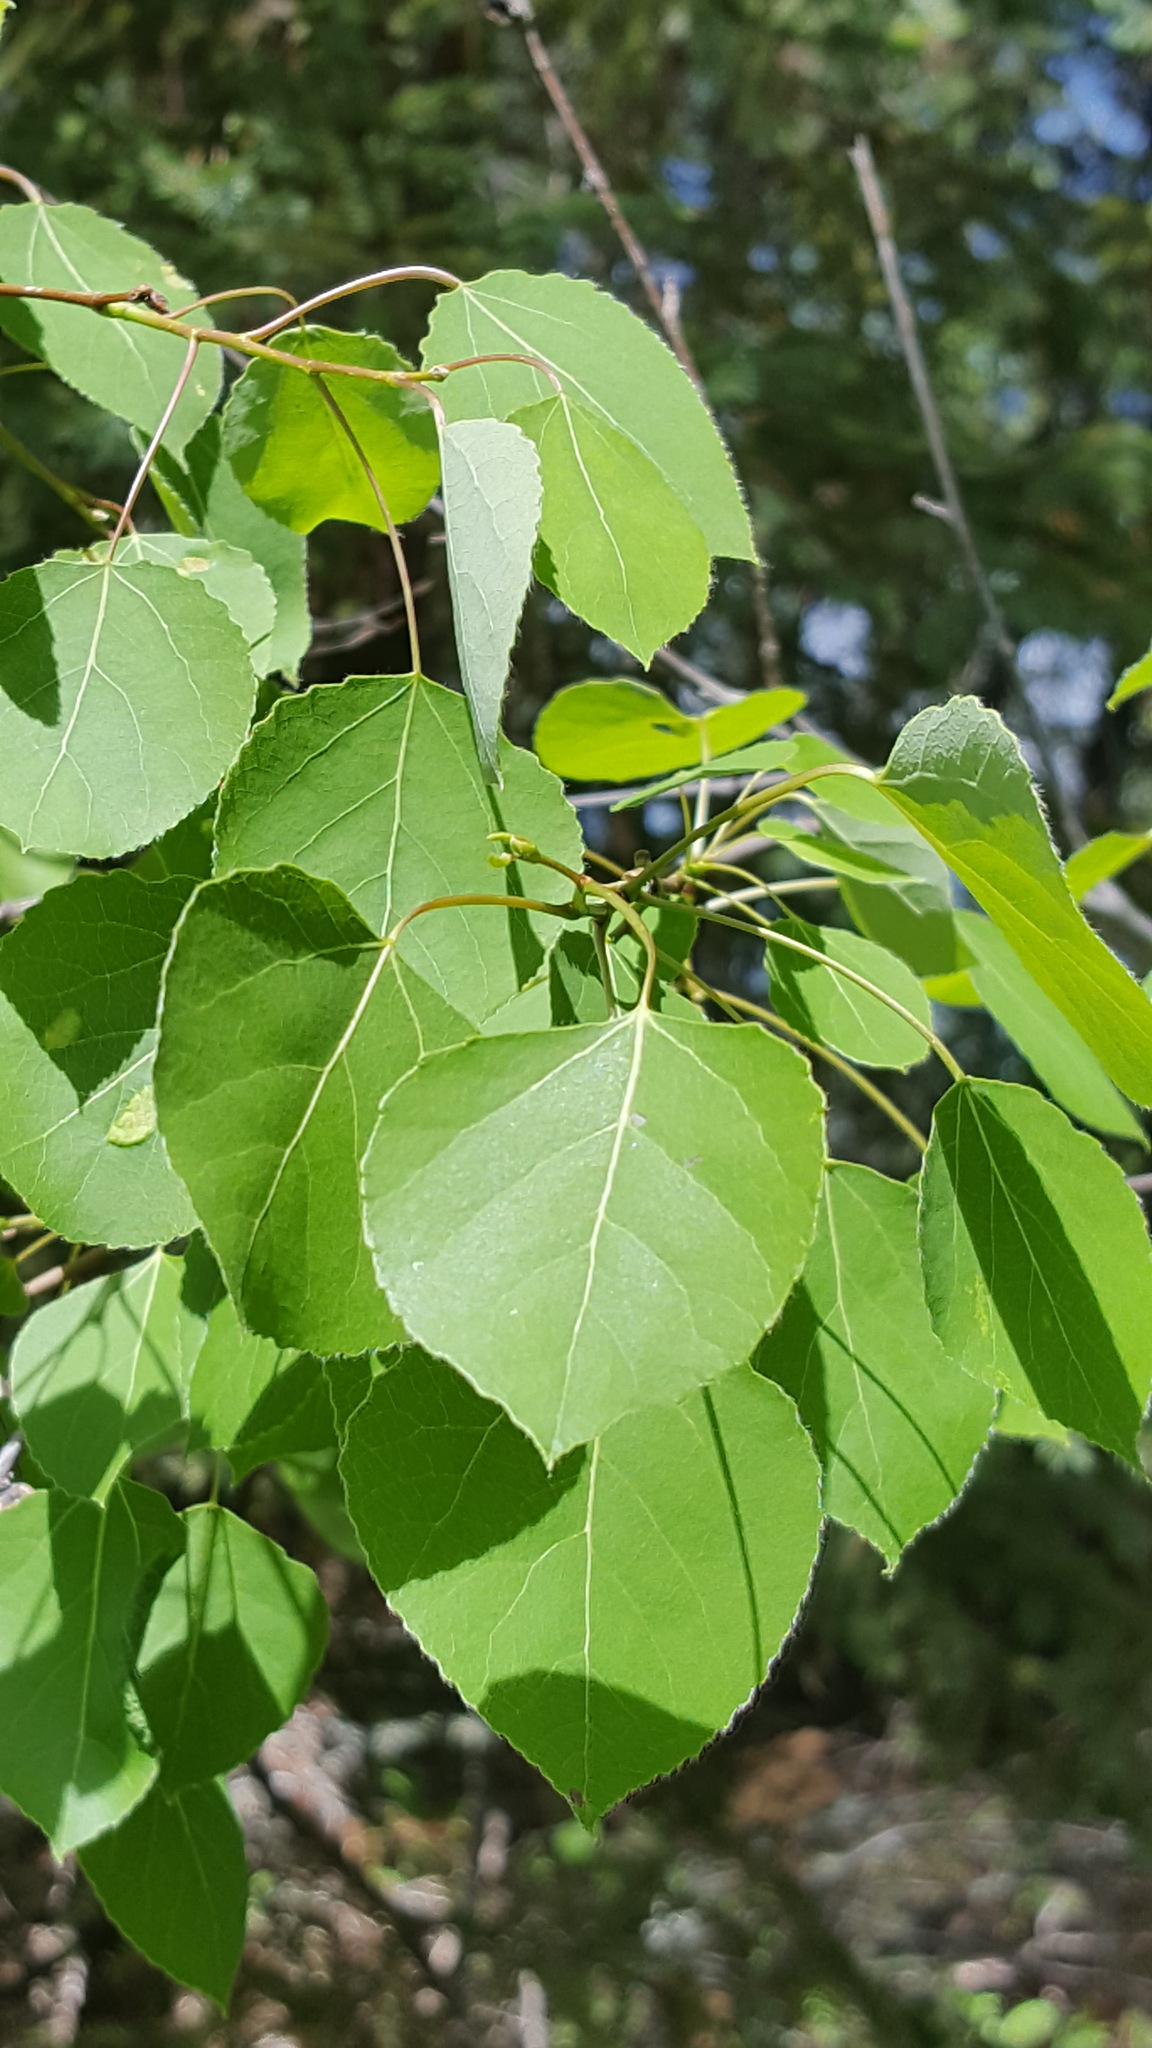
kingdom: Plantae
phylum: Tracheophyta
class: Magnoliopsida
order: Malpighiales
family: Salicaceae
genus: Populus
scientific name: Populus tremuloides
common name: Quaking aspen
